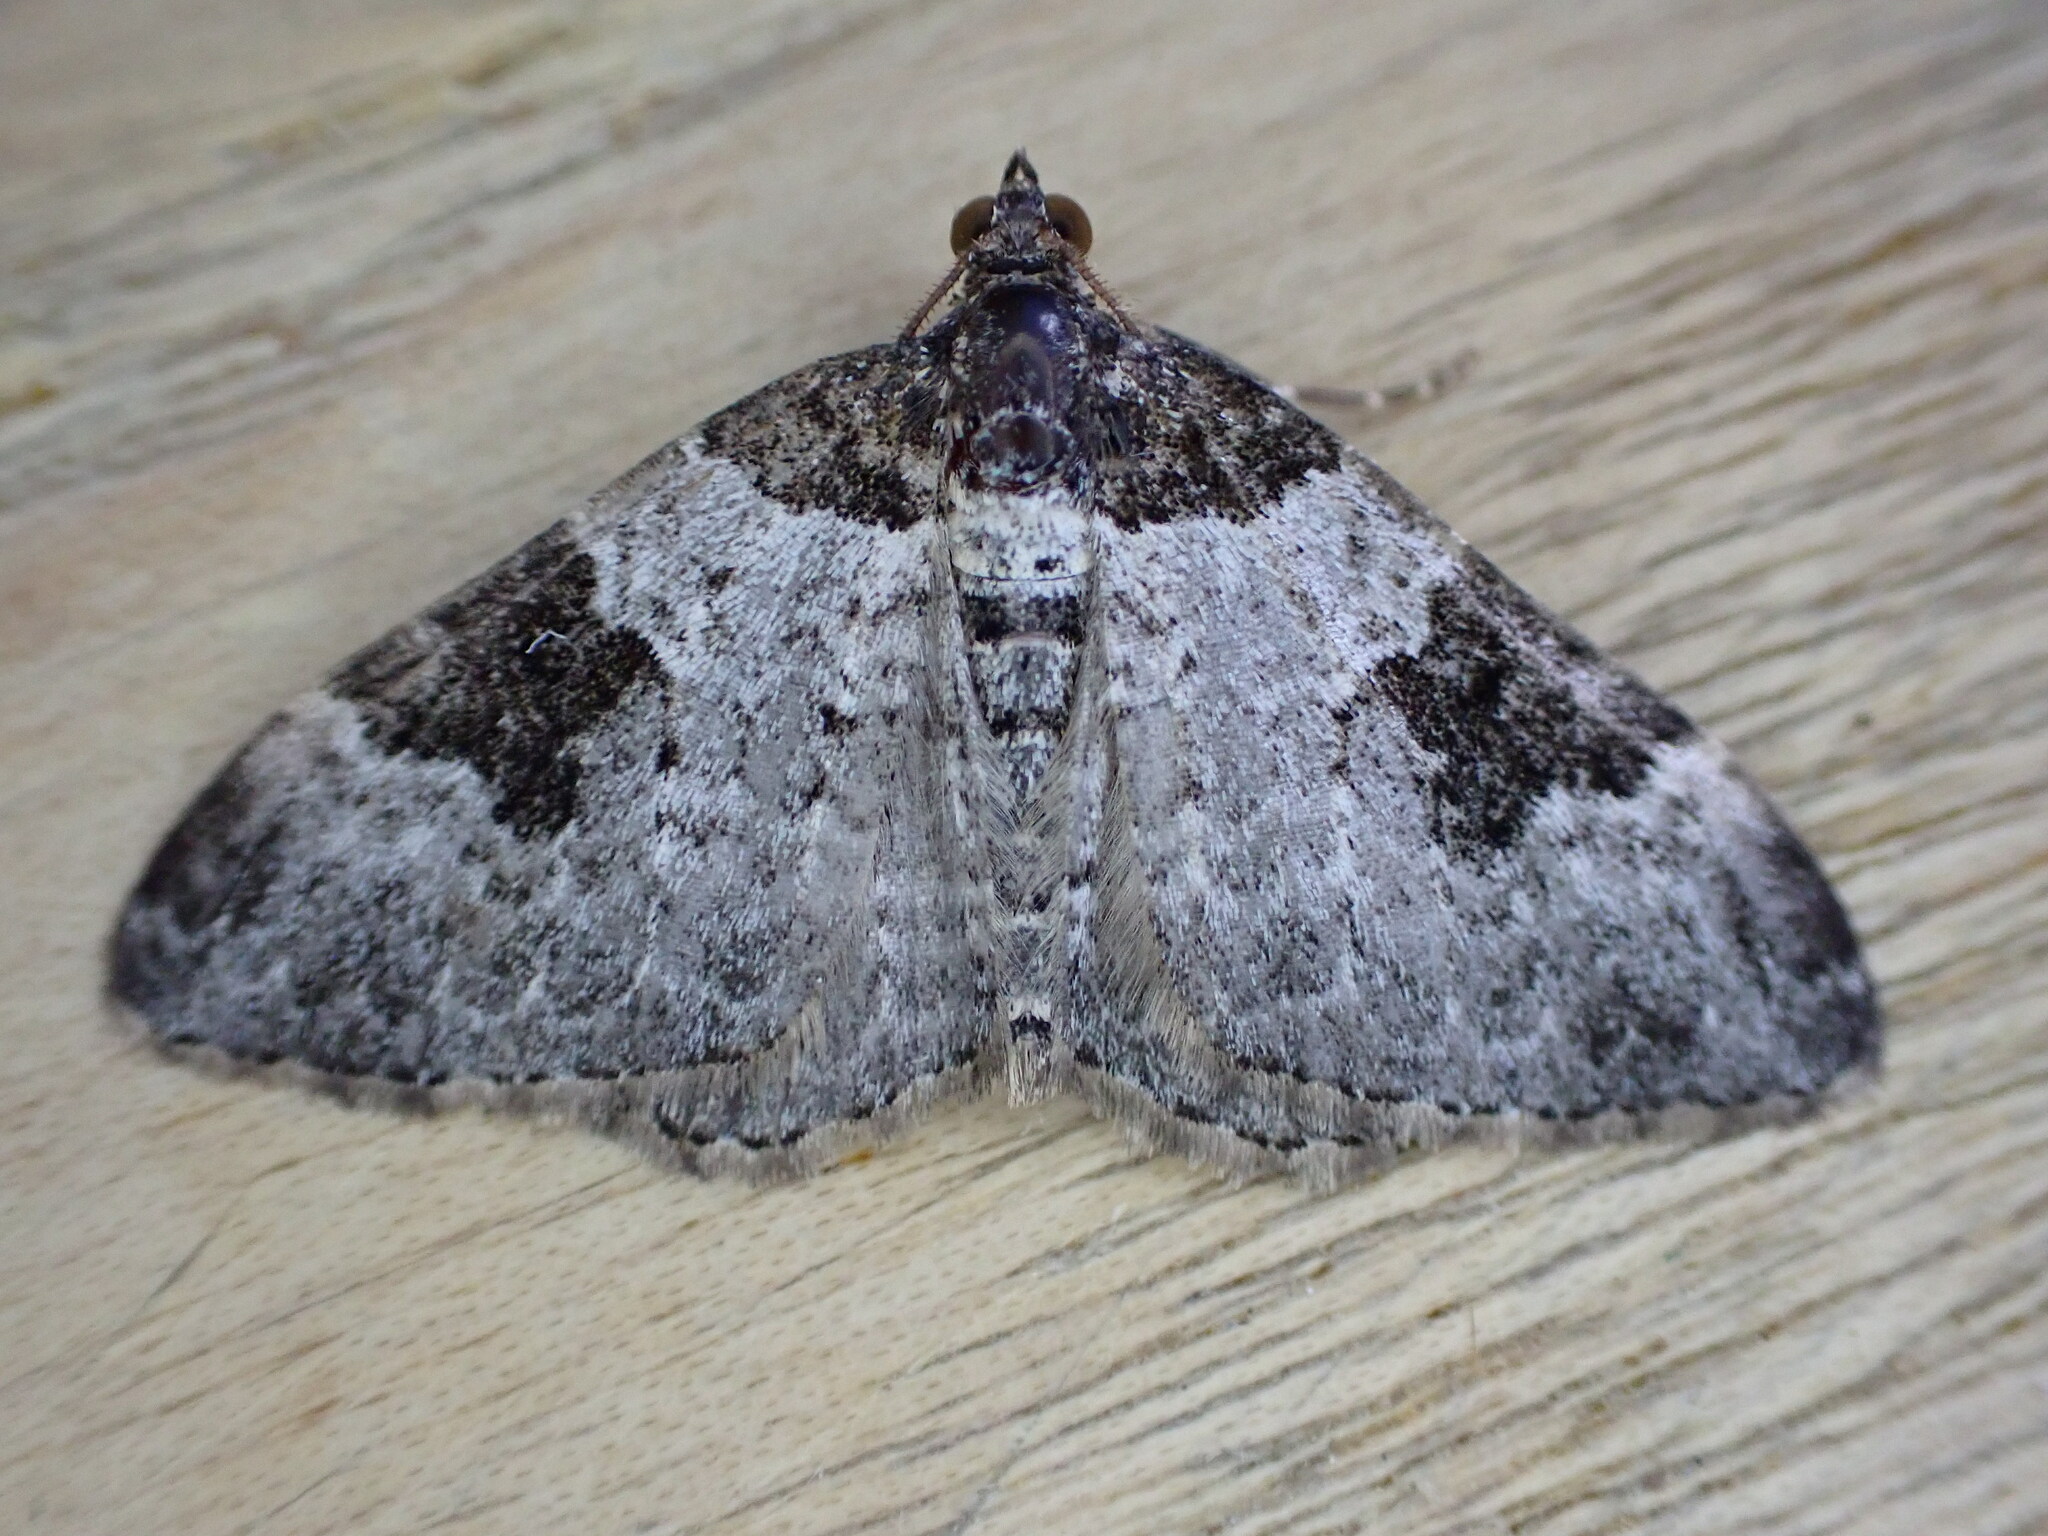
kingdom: Animalia
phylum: Arthropoda
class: Insecta
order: Lepidoptera
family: Geometridae
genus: Xanthorhoe
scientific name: Xanthorhoe fluctuata
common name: Garden carpet
